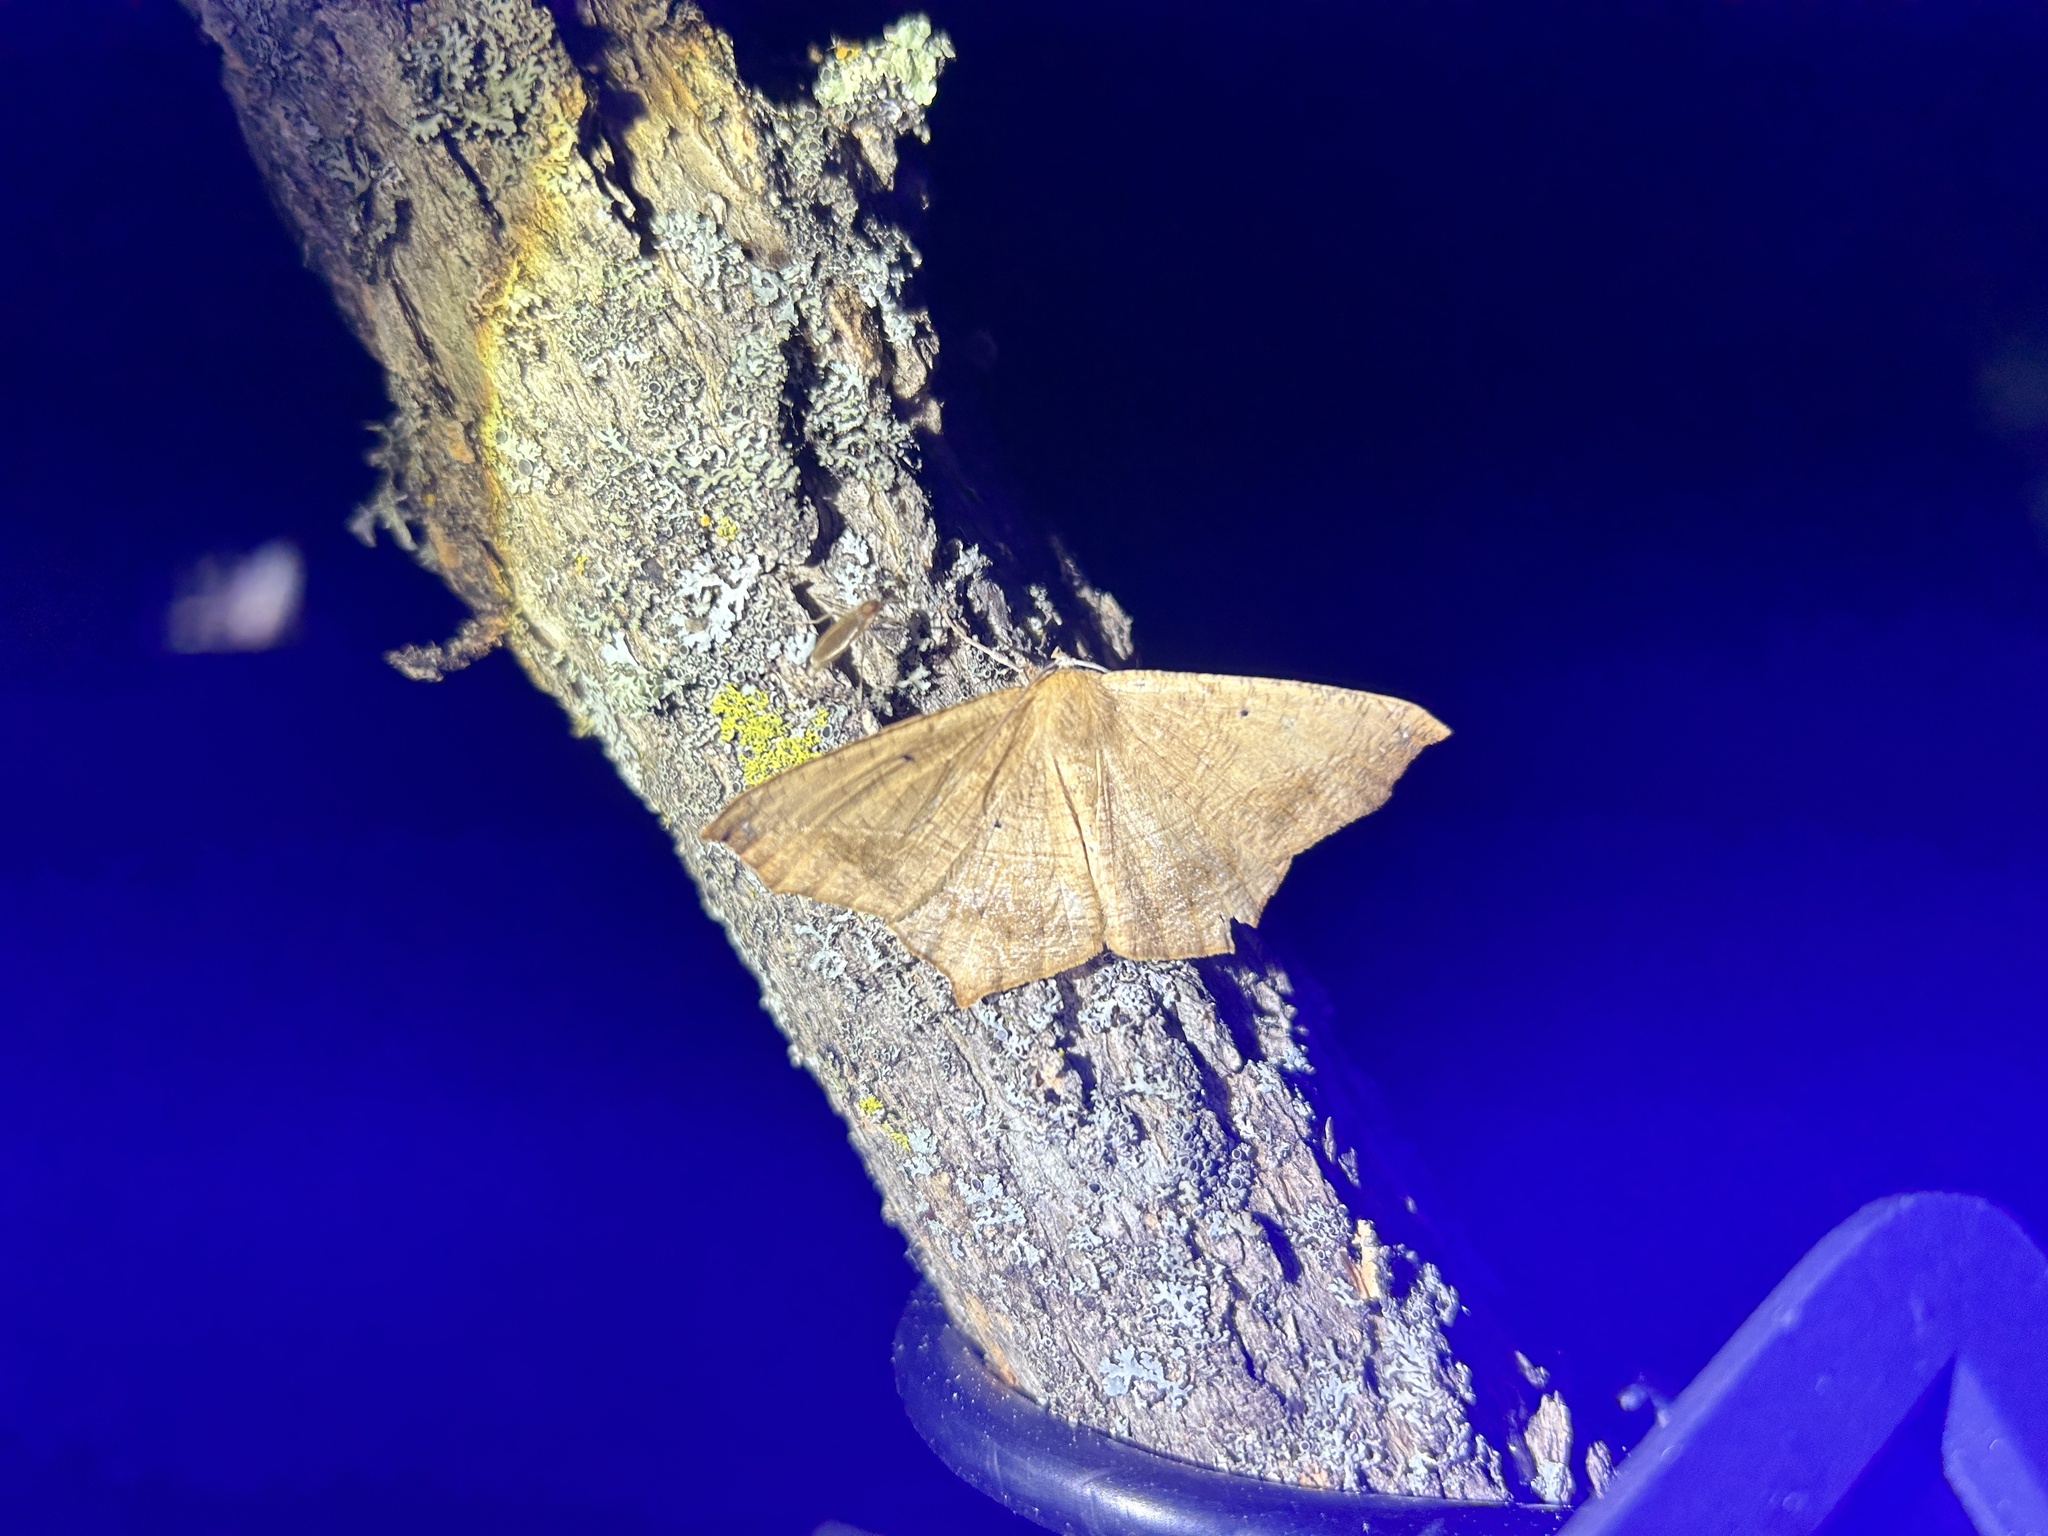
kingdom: Animalia
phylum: Arthropoda
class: Insecta
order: Lepidoptera
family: Geometridae
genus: Prochoerodes
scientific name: Prochoerodes lineola
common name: Large maple spanworm
